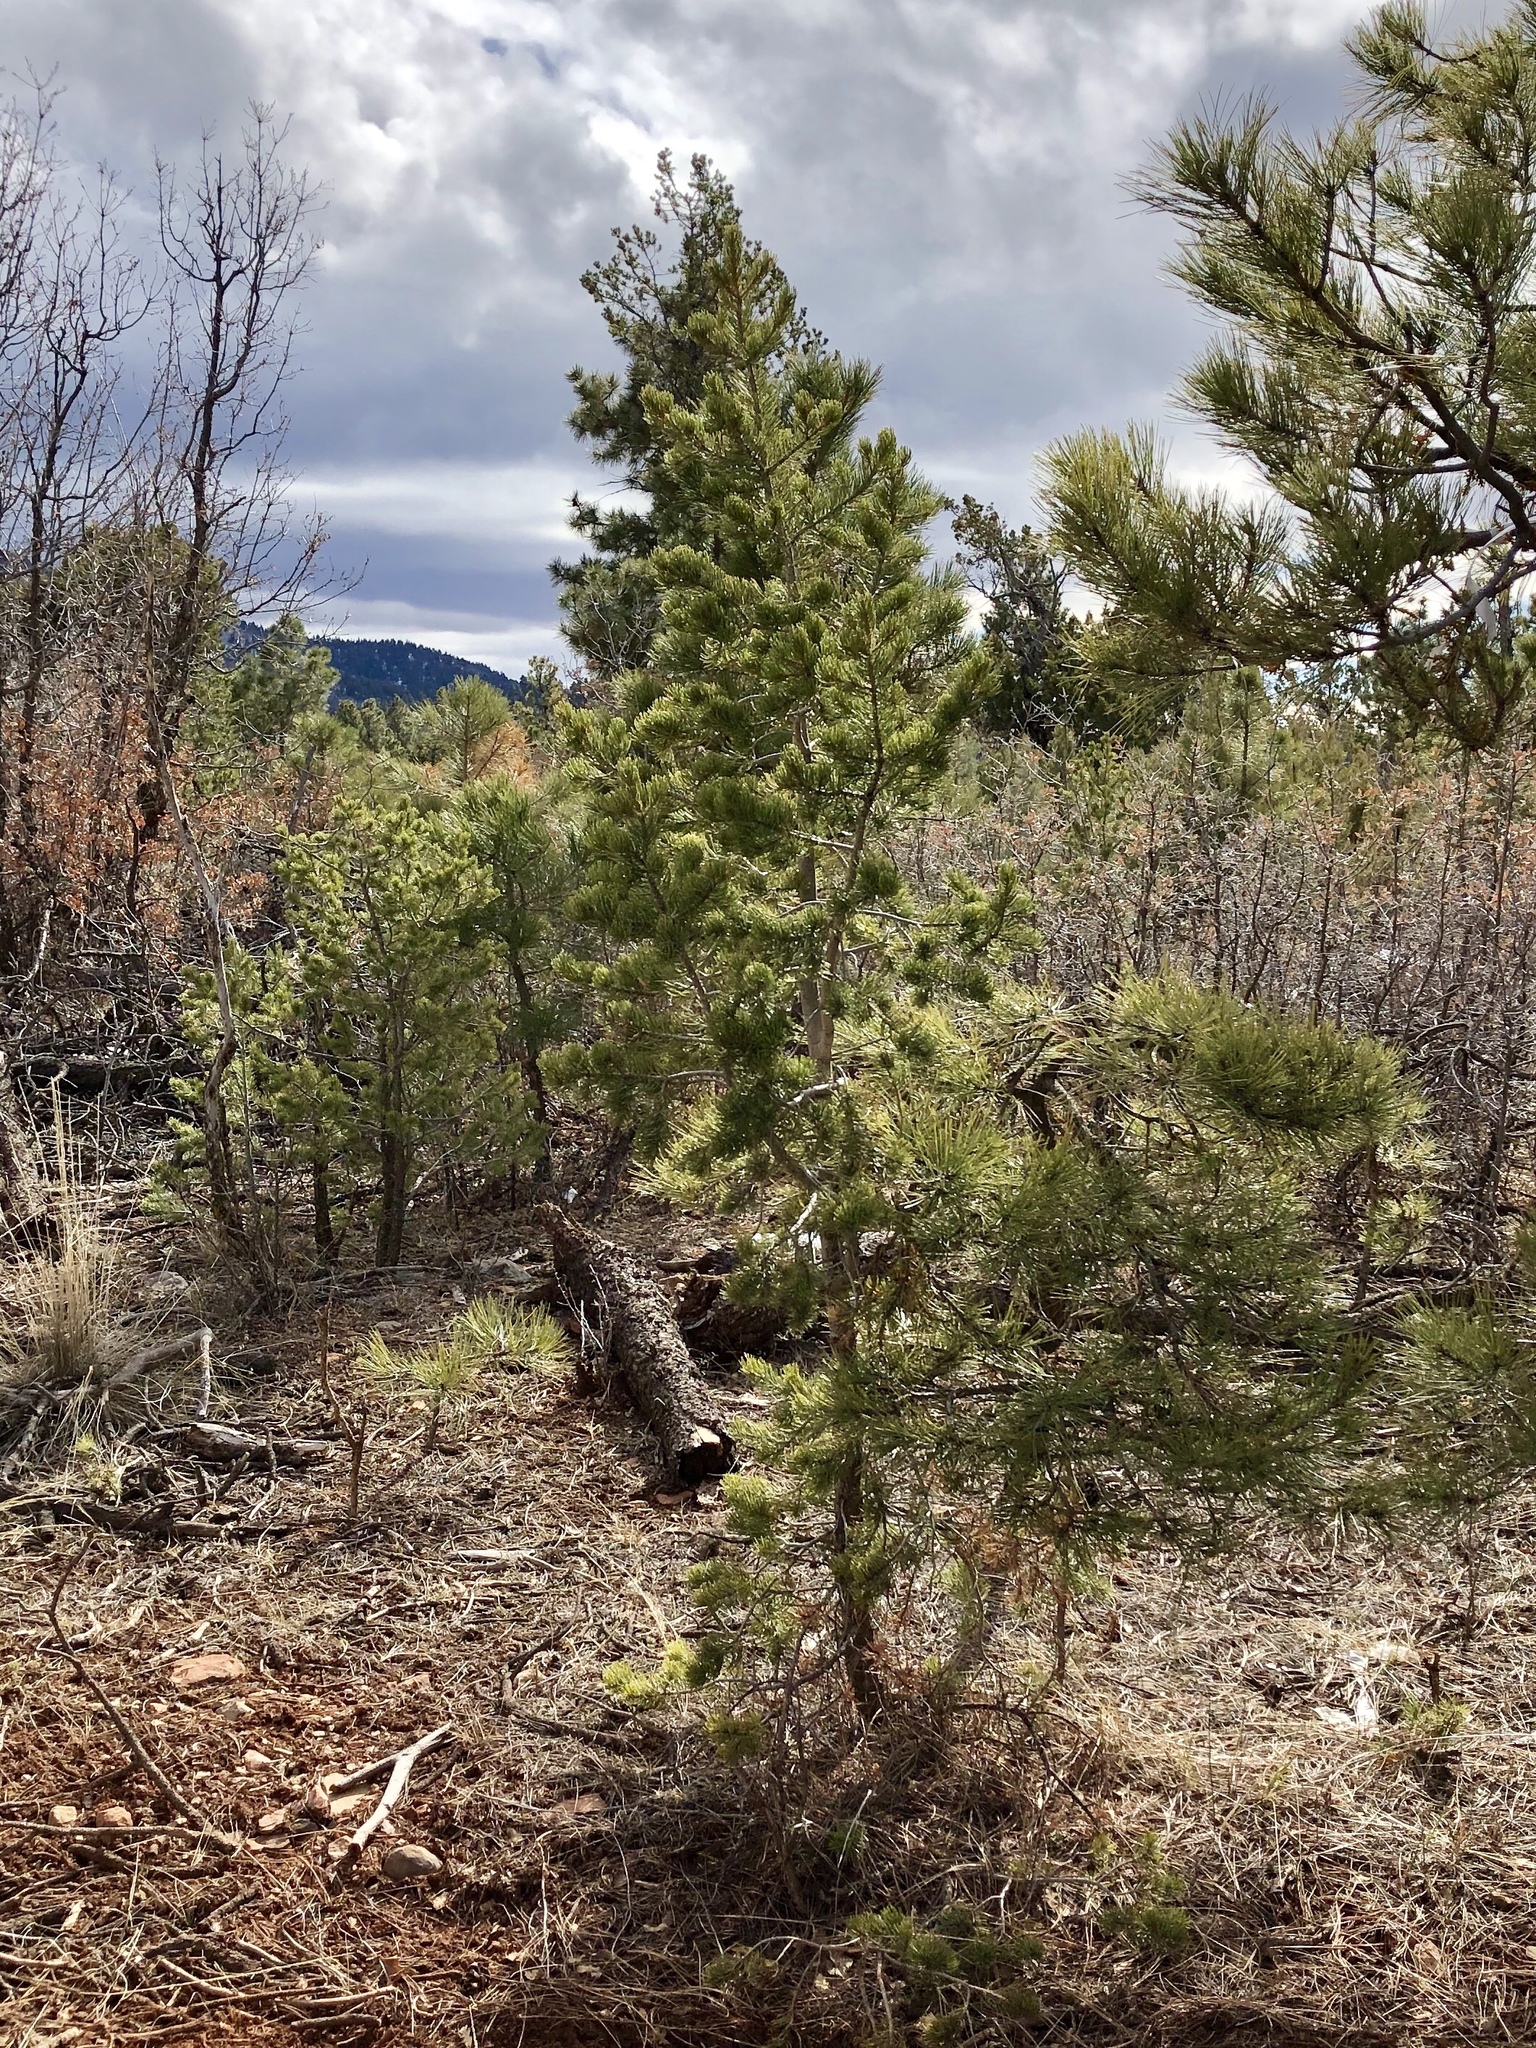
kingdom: Plantae
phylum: Tracheophyta
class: Pinopsida
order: Pinales
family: Pinaceae
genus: Pinus
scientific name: Pinus edulis
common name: Colorado pinyon
